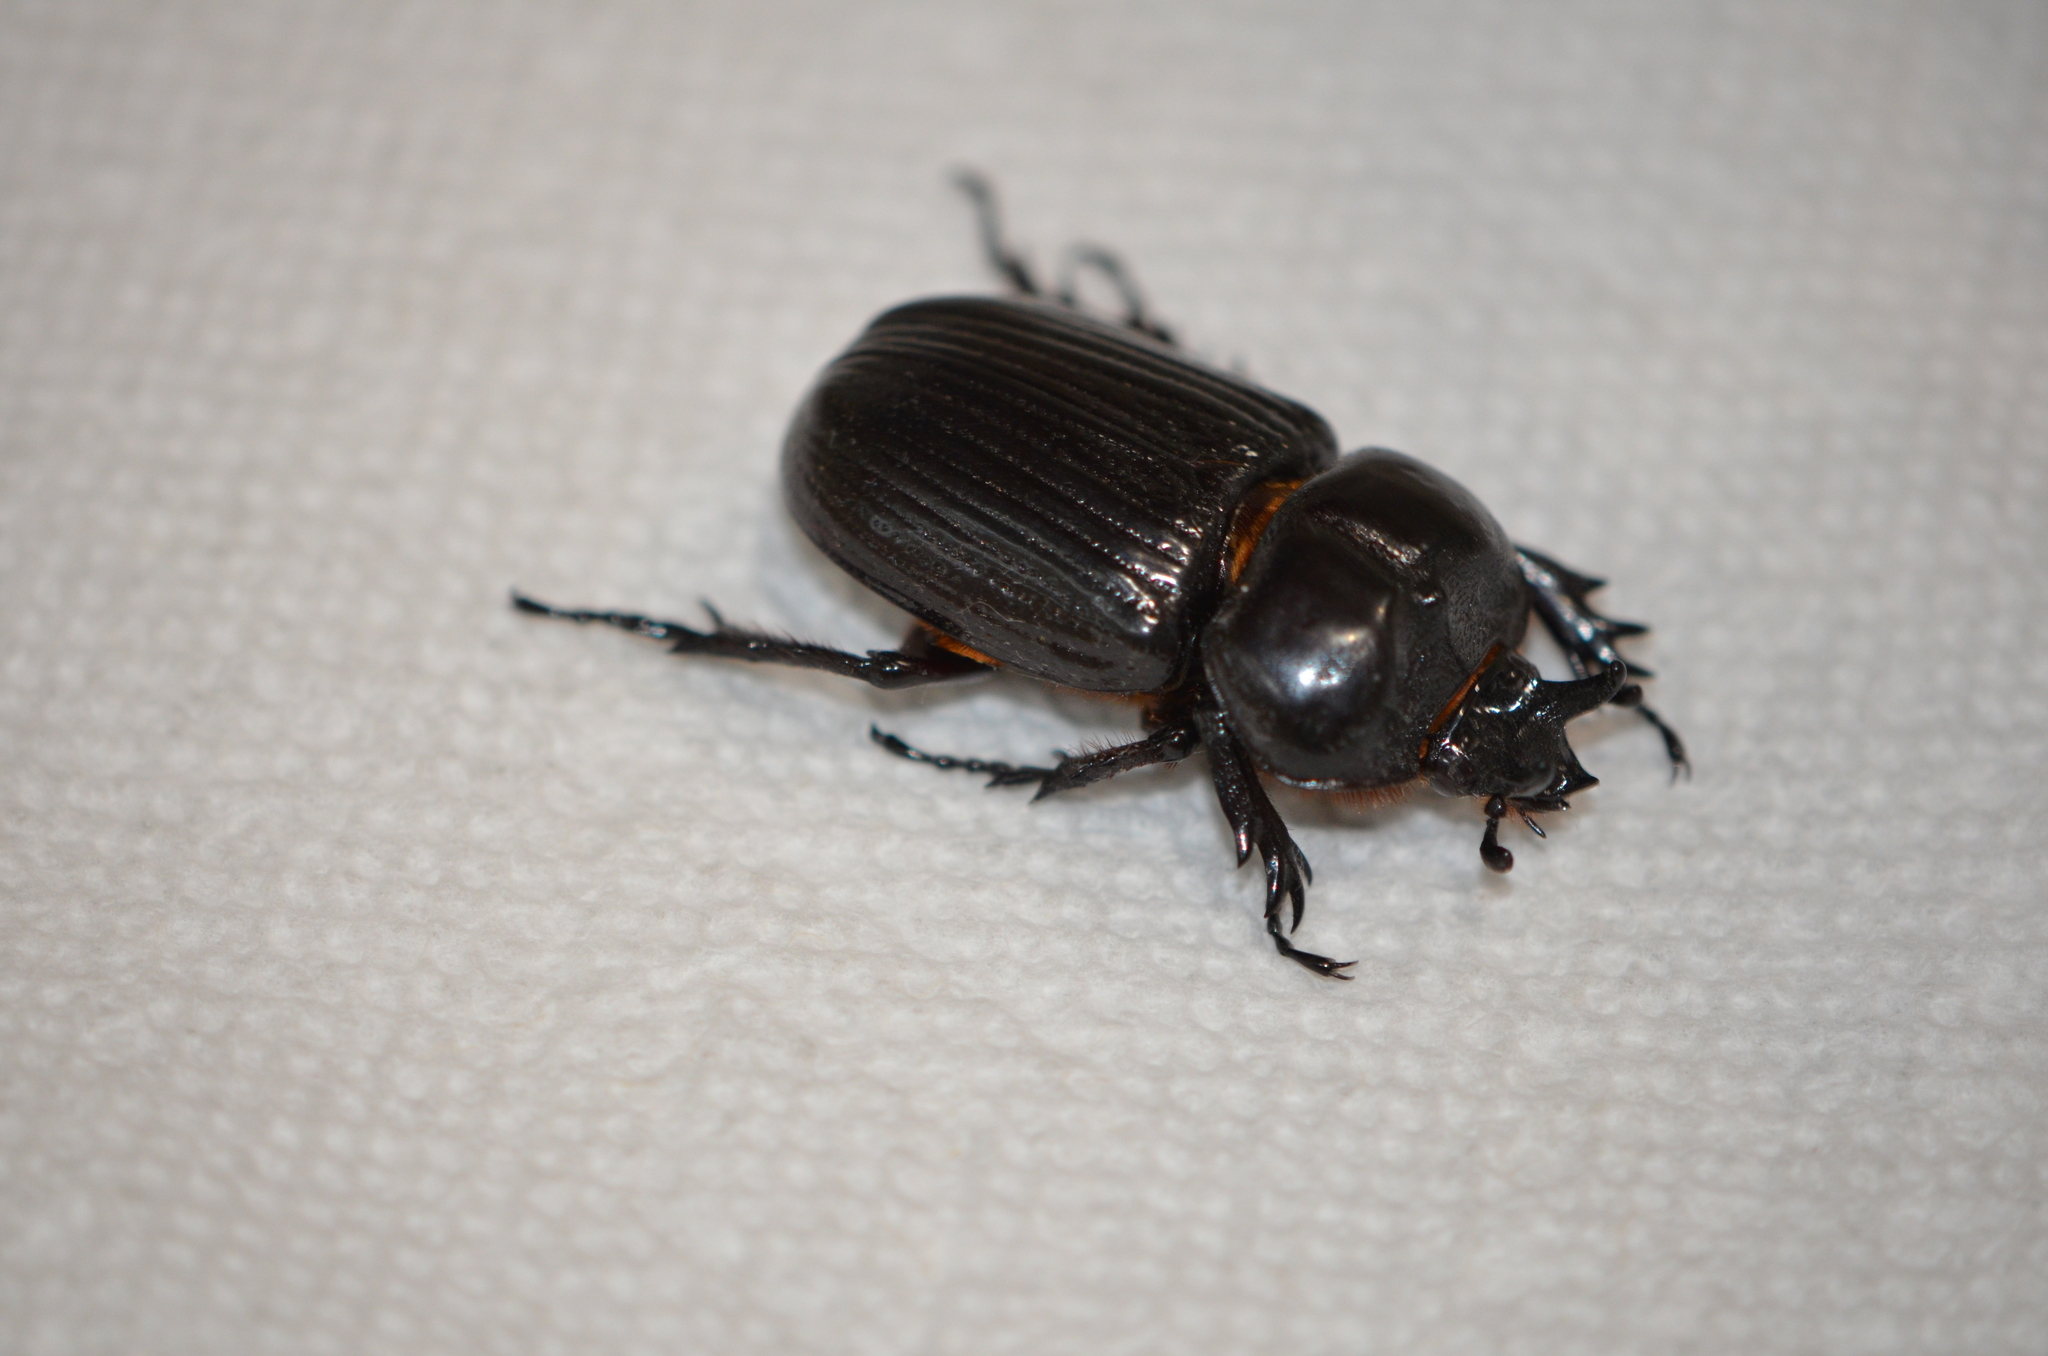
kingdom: Animalia
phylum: Arthropoda
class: Insecta
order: Coleoptera
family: Scarabaeidae
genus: Phileurus
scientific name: Phileurus truncatus
